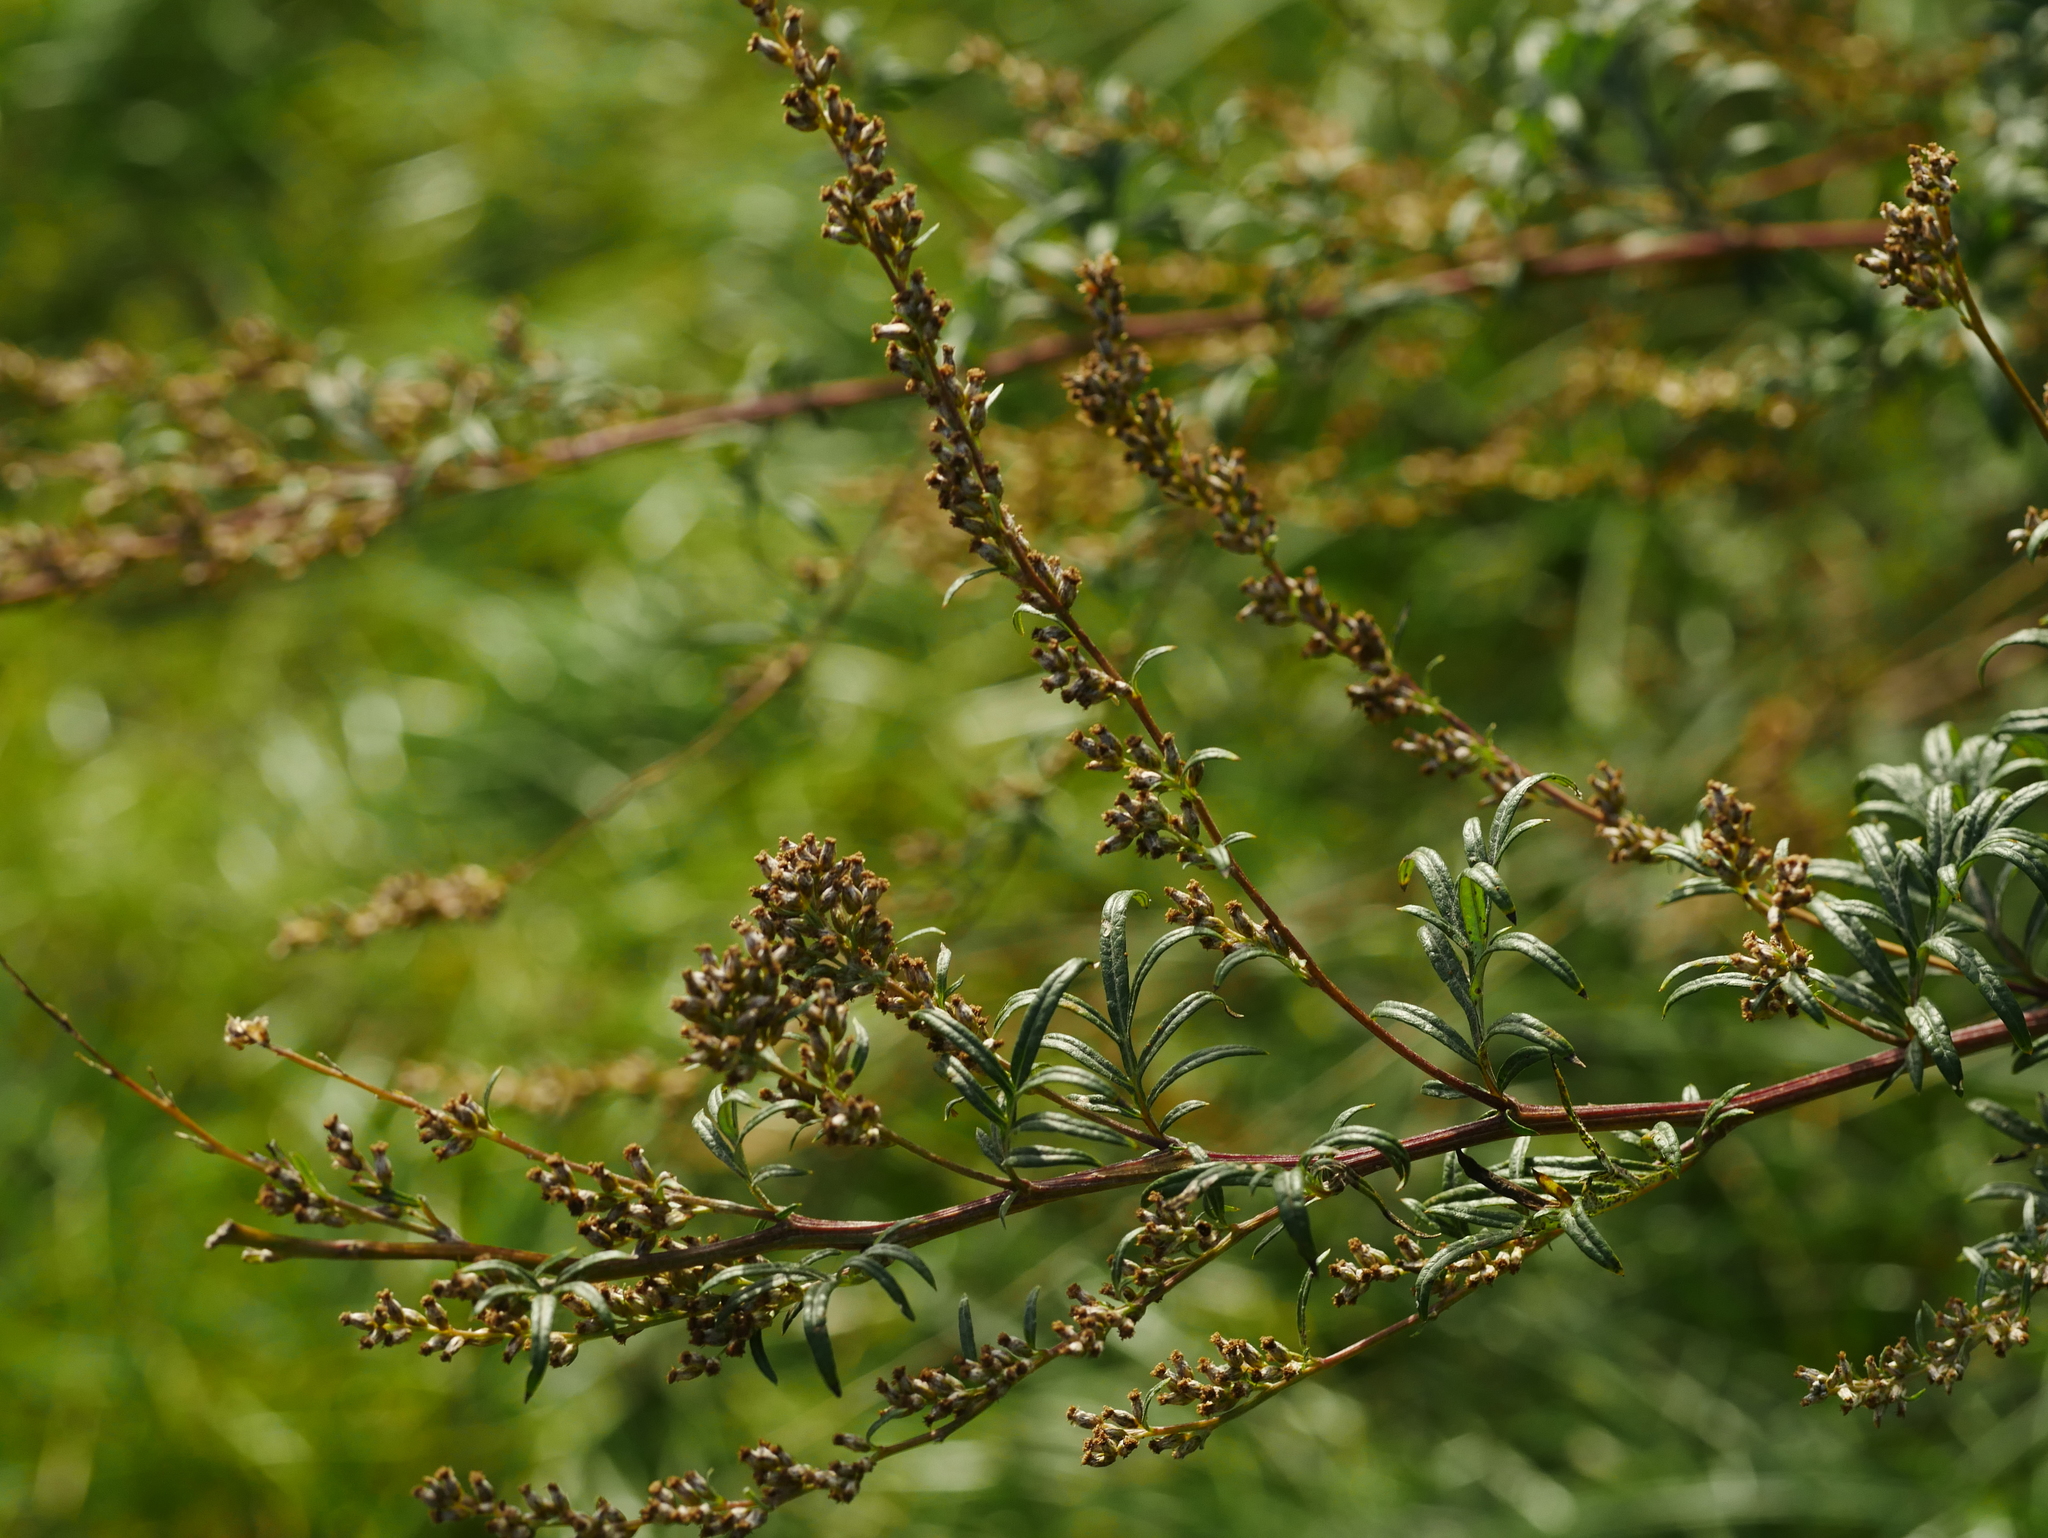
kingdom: Plantae
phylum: Tracheophyta
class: Magnoliopsida
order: Asterales
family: Asteraceae
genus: Artemisia
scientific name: Artemisia vulgaris
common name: Mugwort
